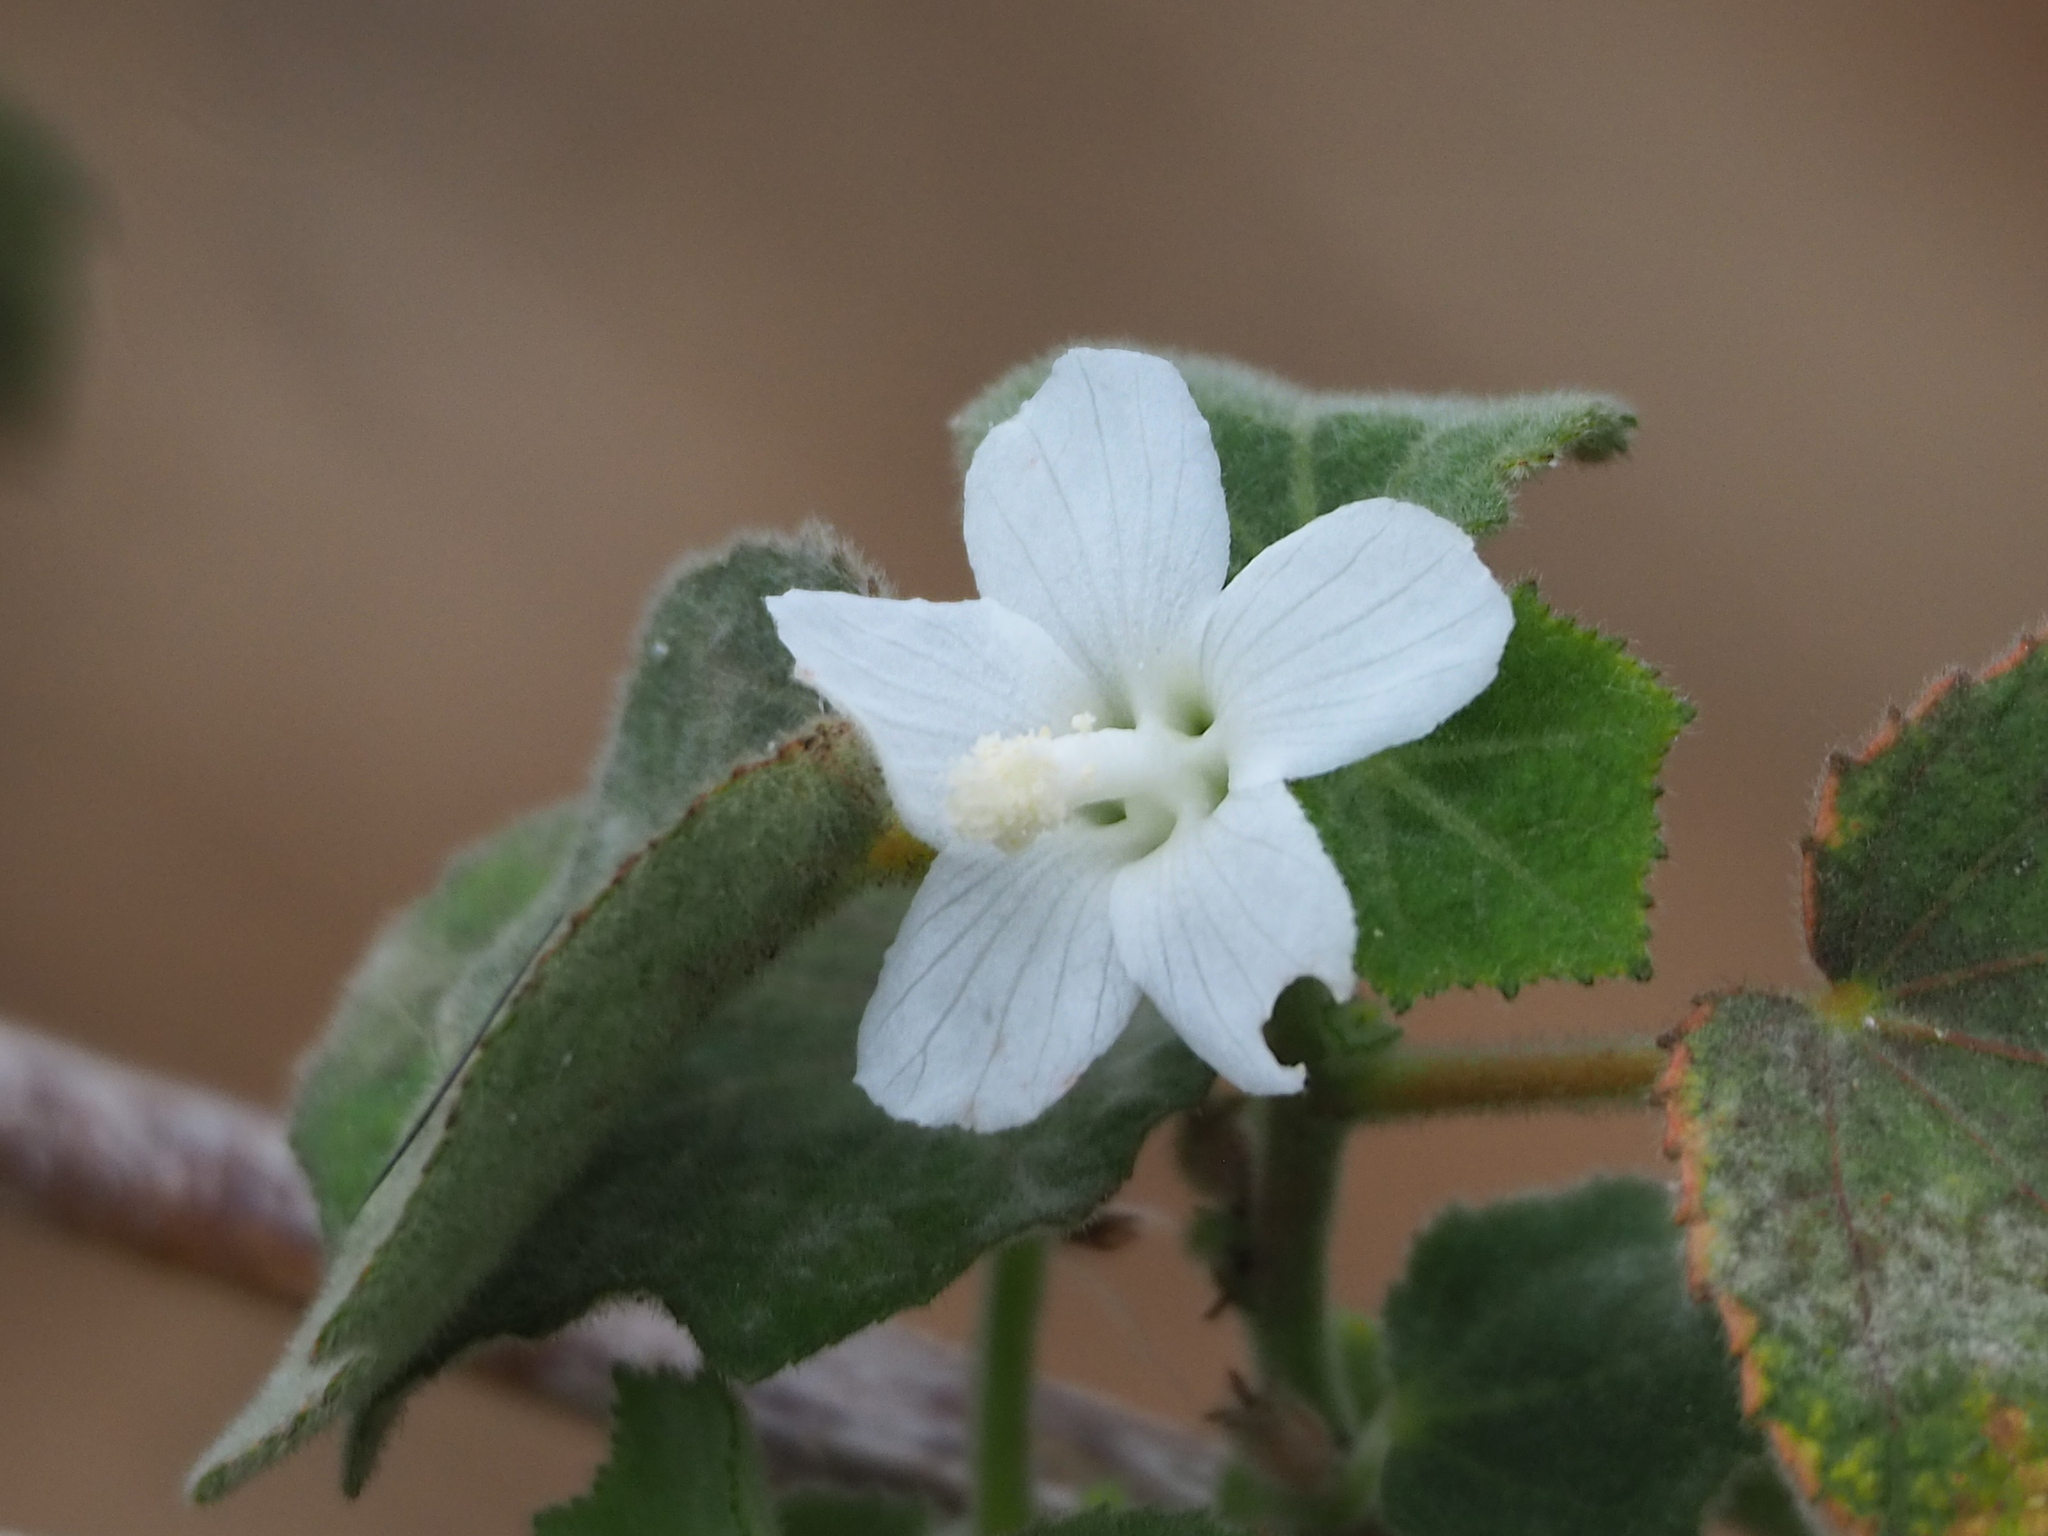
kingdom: Plantae
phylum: Tracheophyta
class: Magnoliopsida
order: Malvales
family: Malvaceae
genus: Urena
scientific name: Urena lobata
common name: Caesarweed
